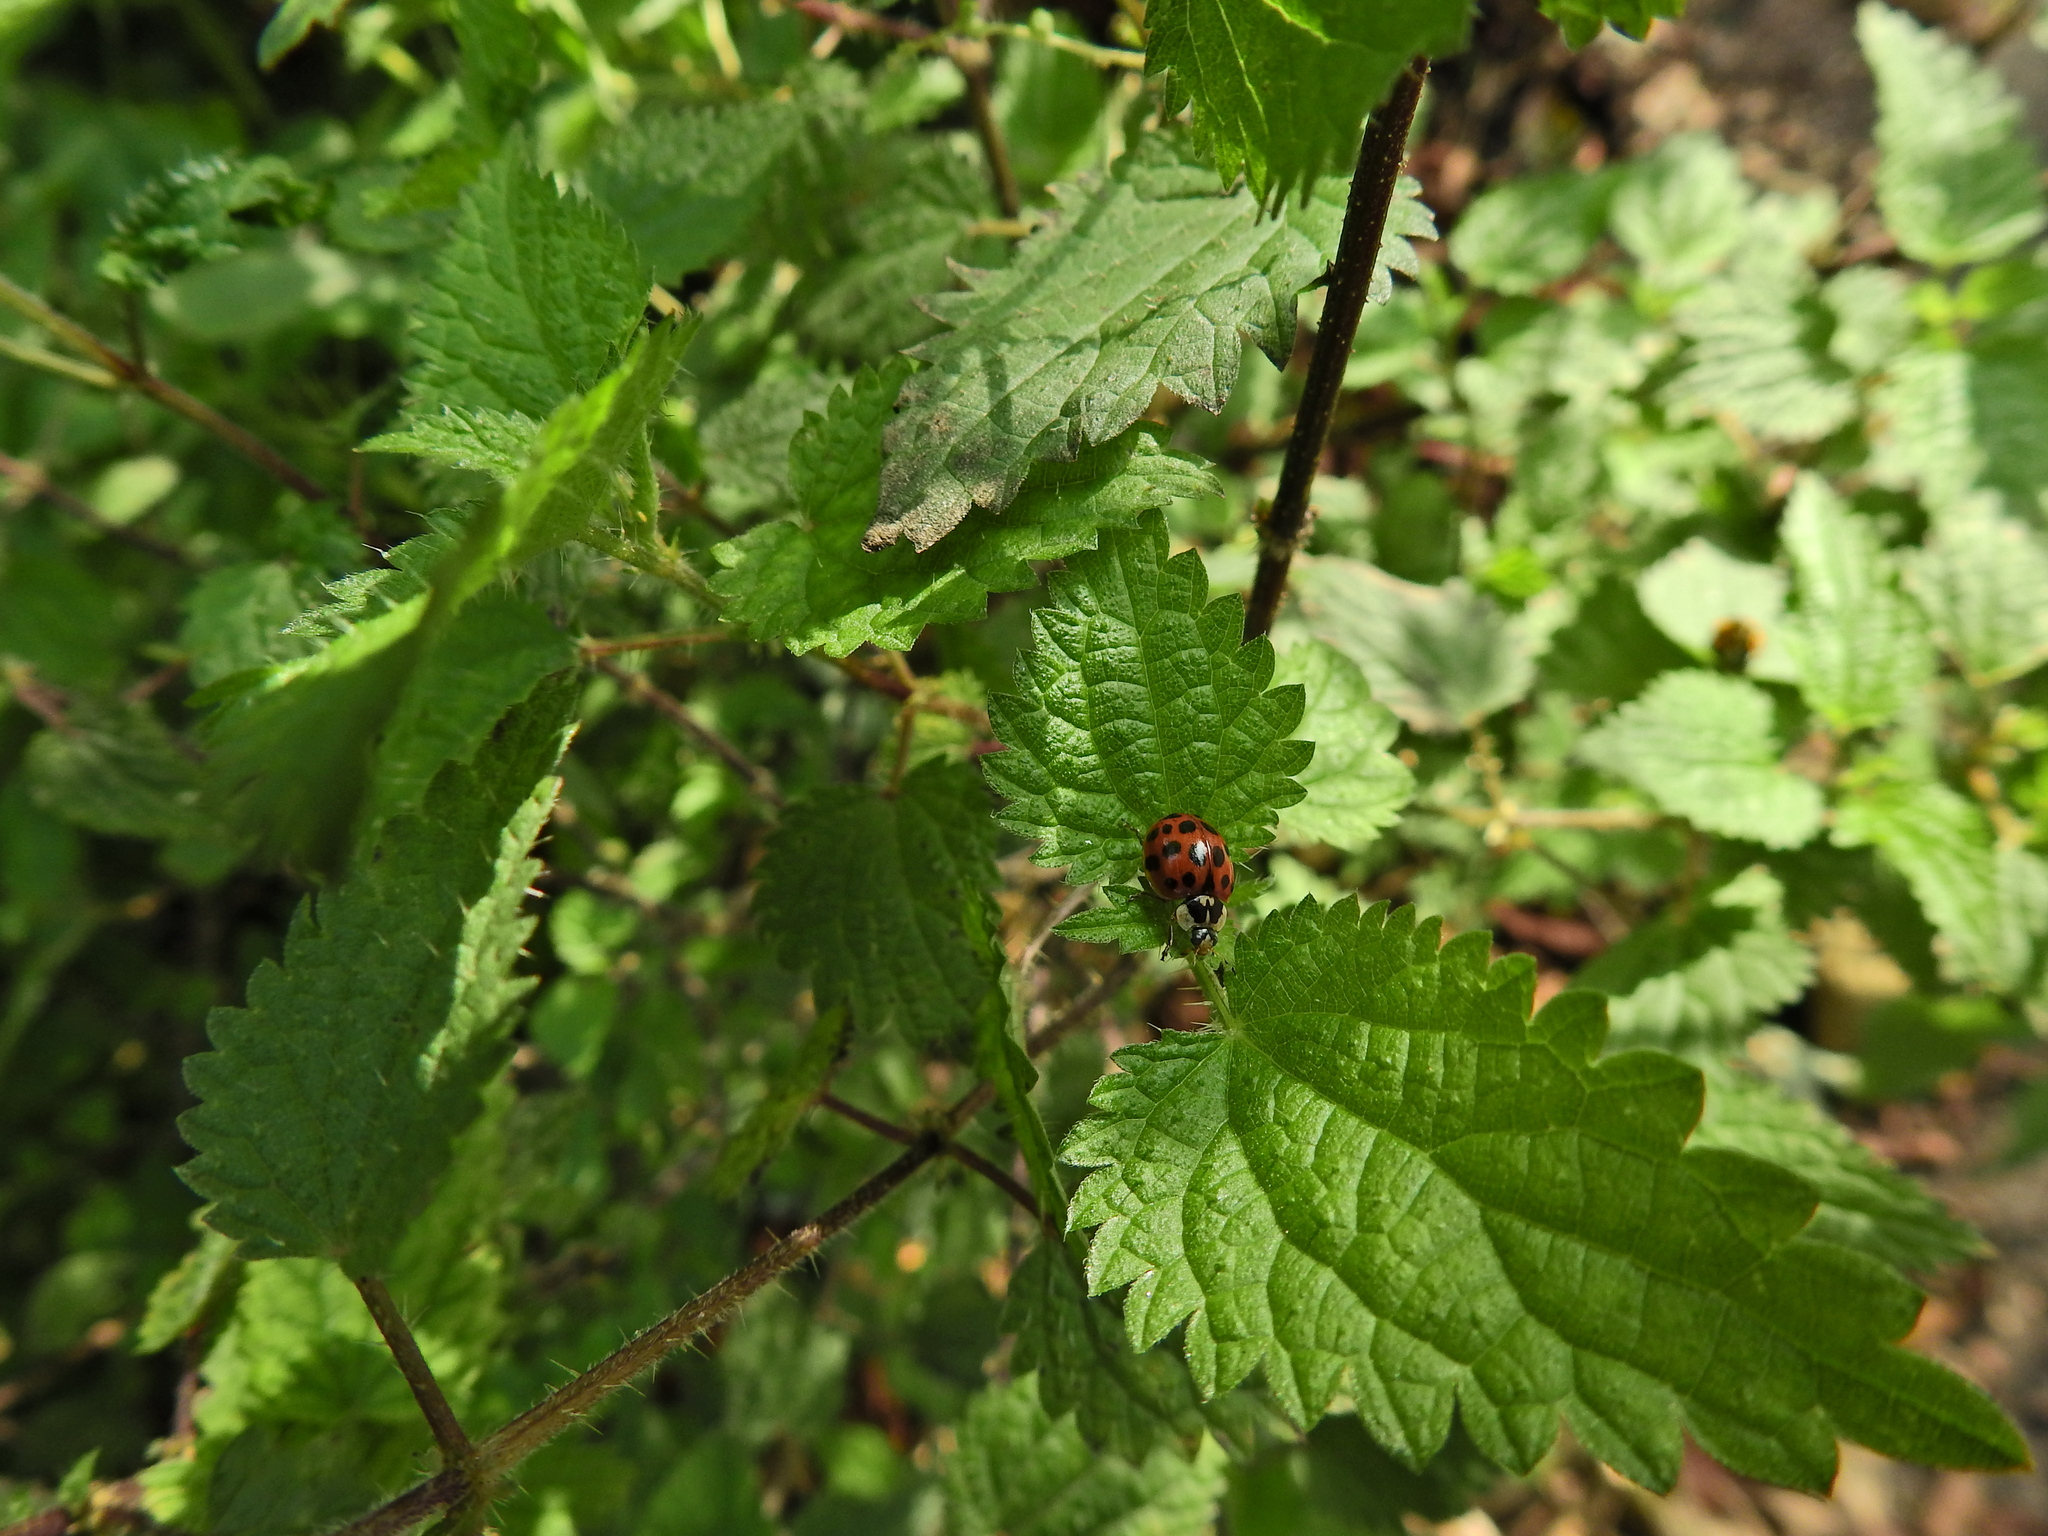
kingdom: Animalia
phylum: Arthropoda
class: Insecta
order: Coleoptera
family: Coccinellidae
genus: Harmonia
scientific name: Harmonia axyridis
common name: Harlequin ladybird
